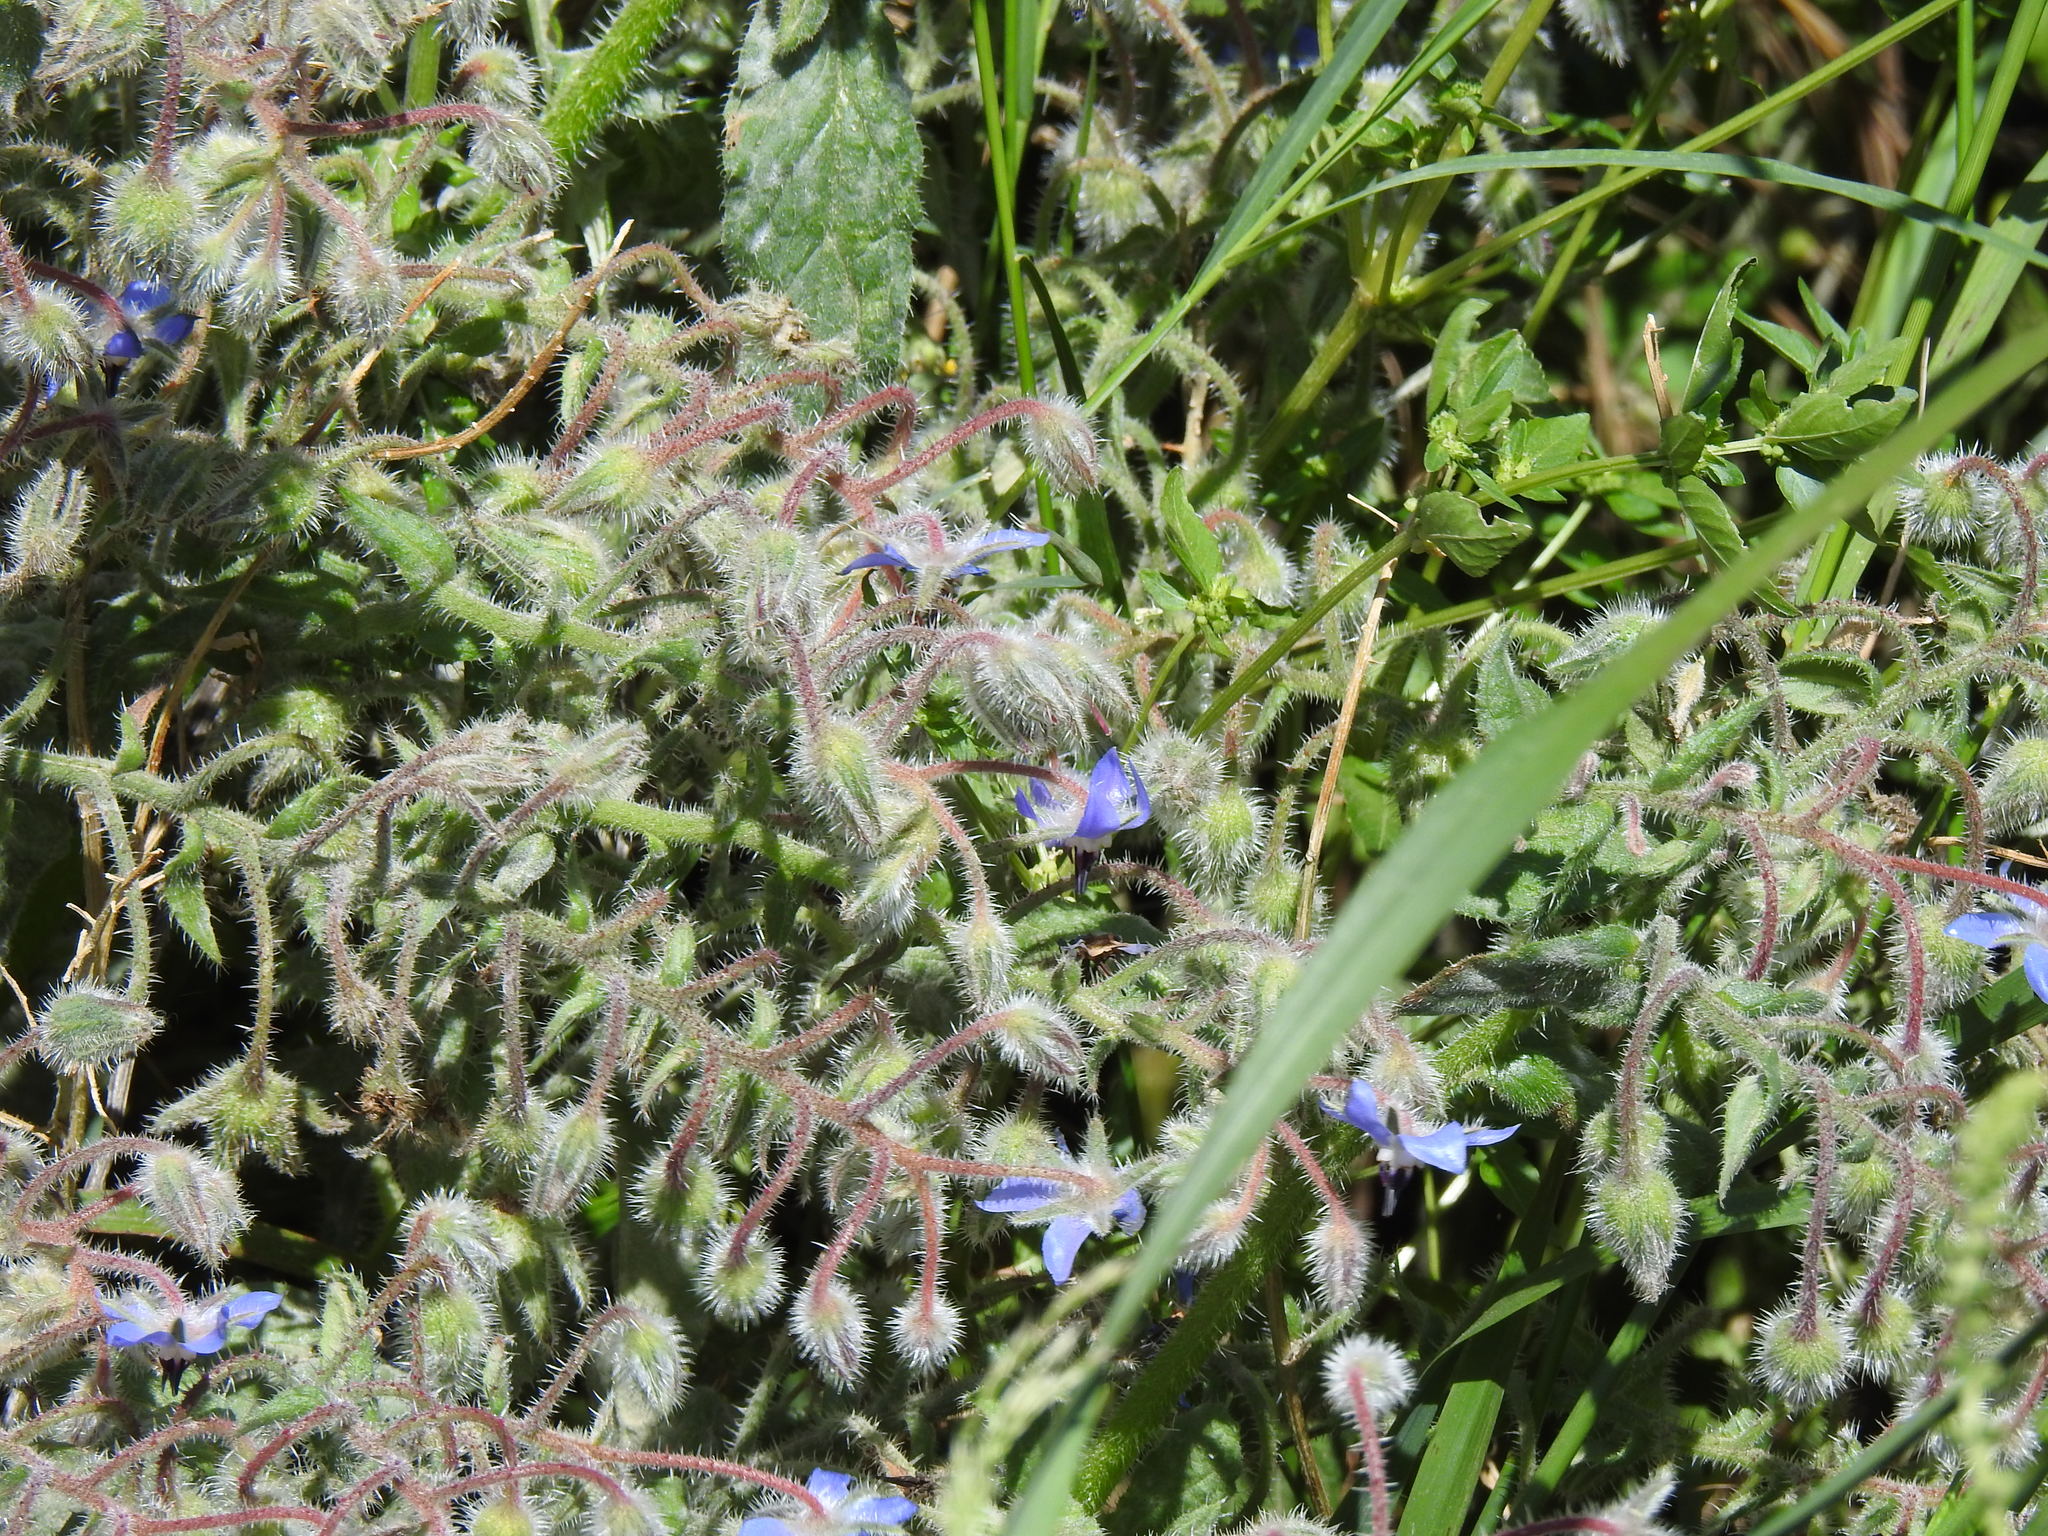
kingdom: Plantae
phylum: Tracheophyta
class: Magnoliopsida
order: Boraginales
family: Boraginaceae
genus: Borago
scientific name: Borago officinalis
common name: Borage
